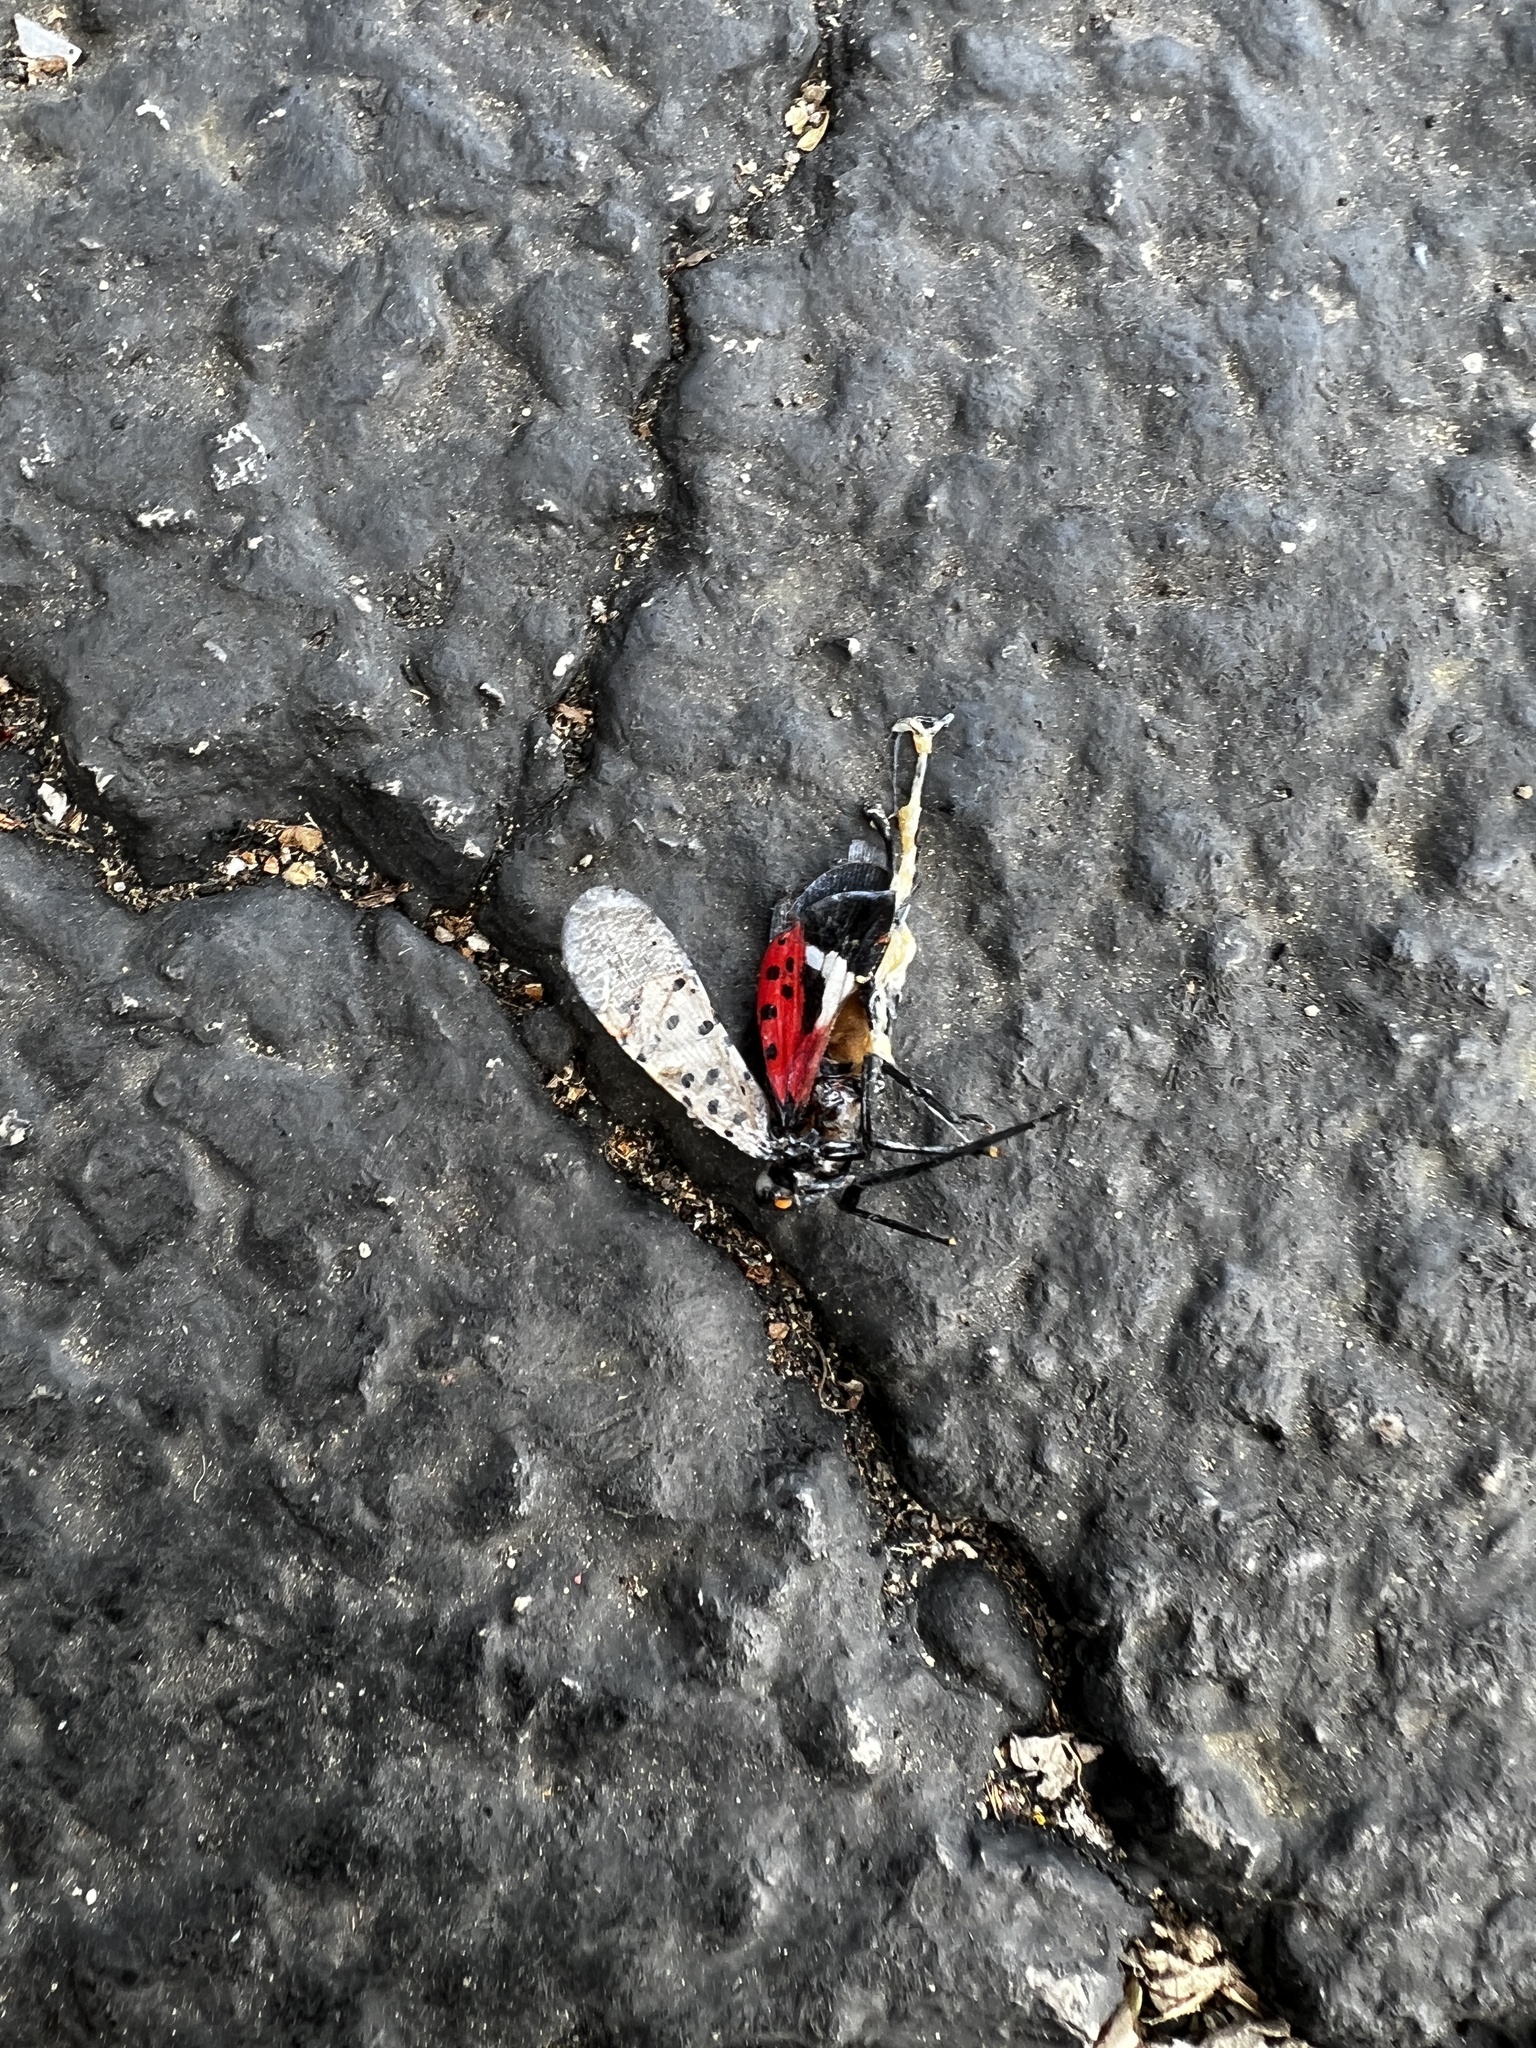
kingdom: Animalia
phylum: Arthropoda
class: Insecta
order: Hemiptera
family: Fulgoridae
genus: Lycorma
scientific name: Lycorma delicatula
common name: Spotted lanternfly
